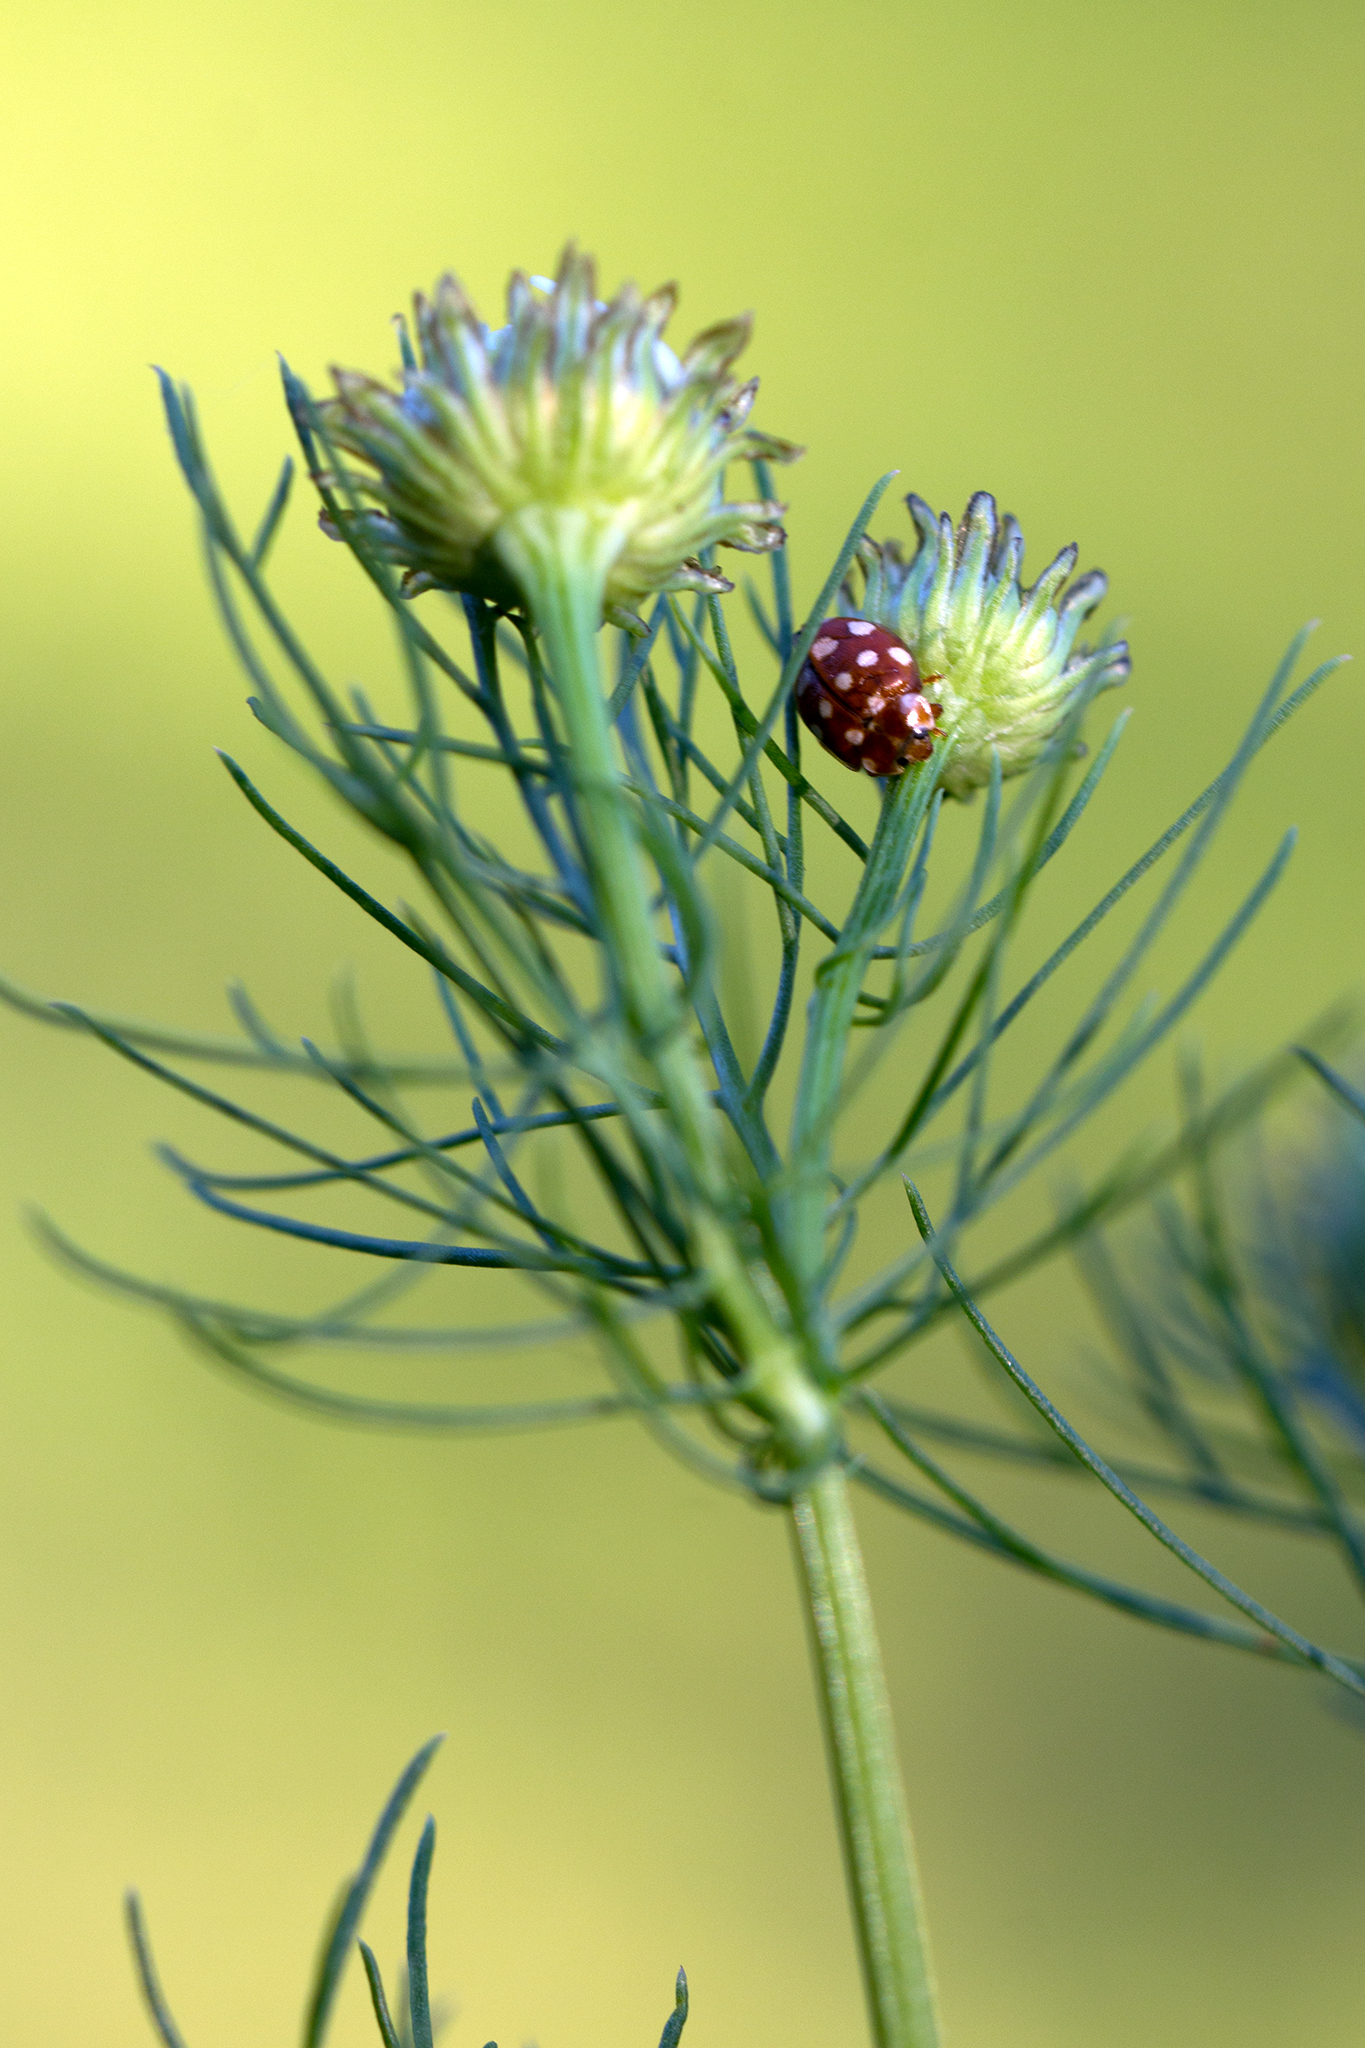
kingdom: Animalia
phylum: Arthropoda
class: Insecta
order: Coleoptera
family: Coccinellidae
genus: Calvia
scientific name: Calvia quatuordecimguttata
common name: Cream-spot ladybird
